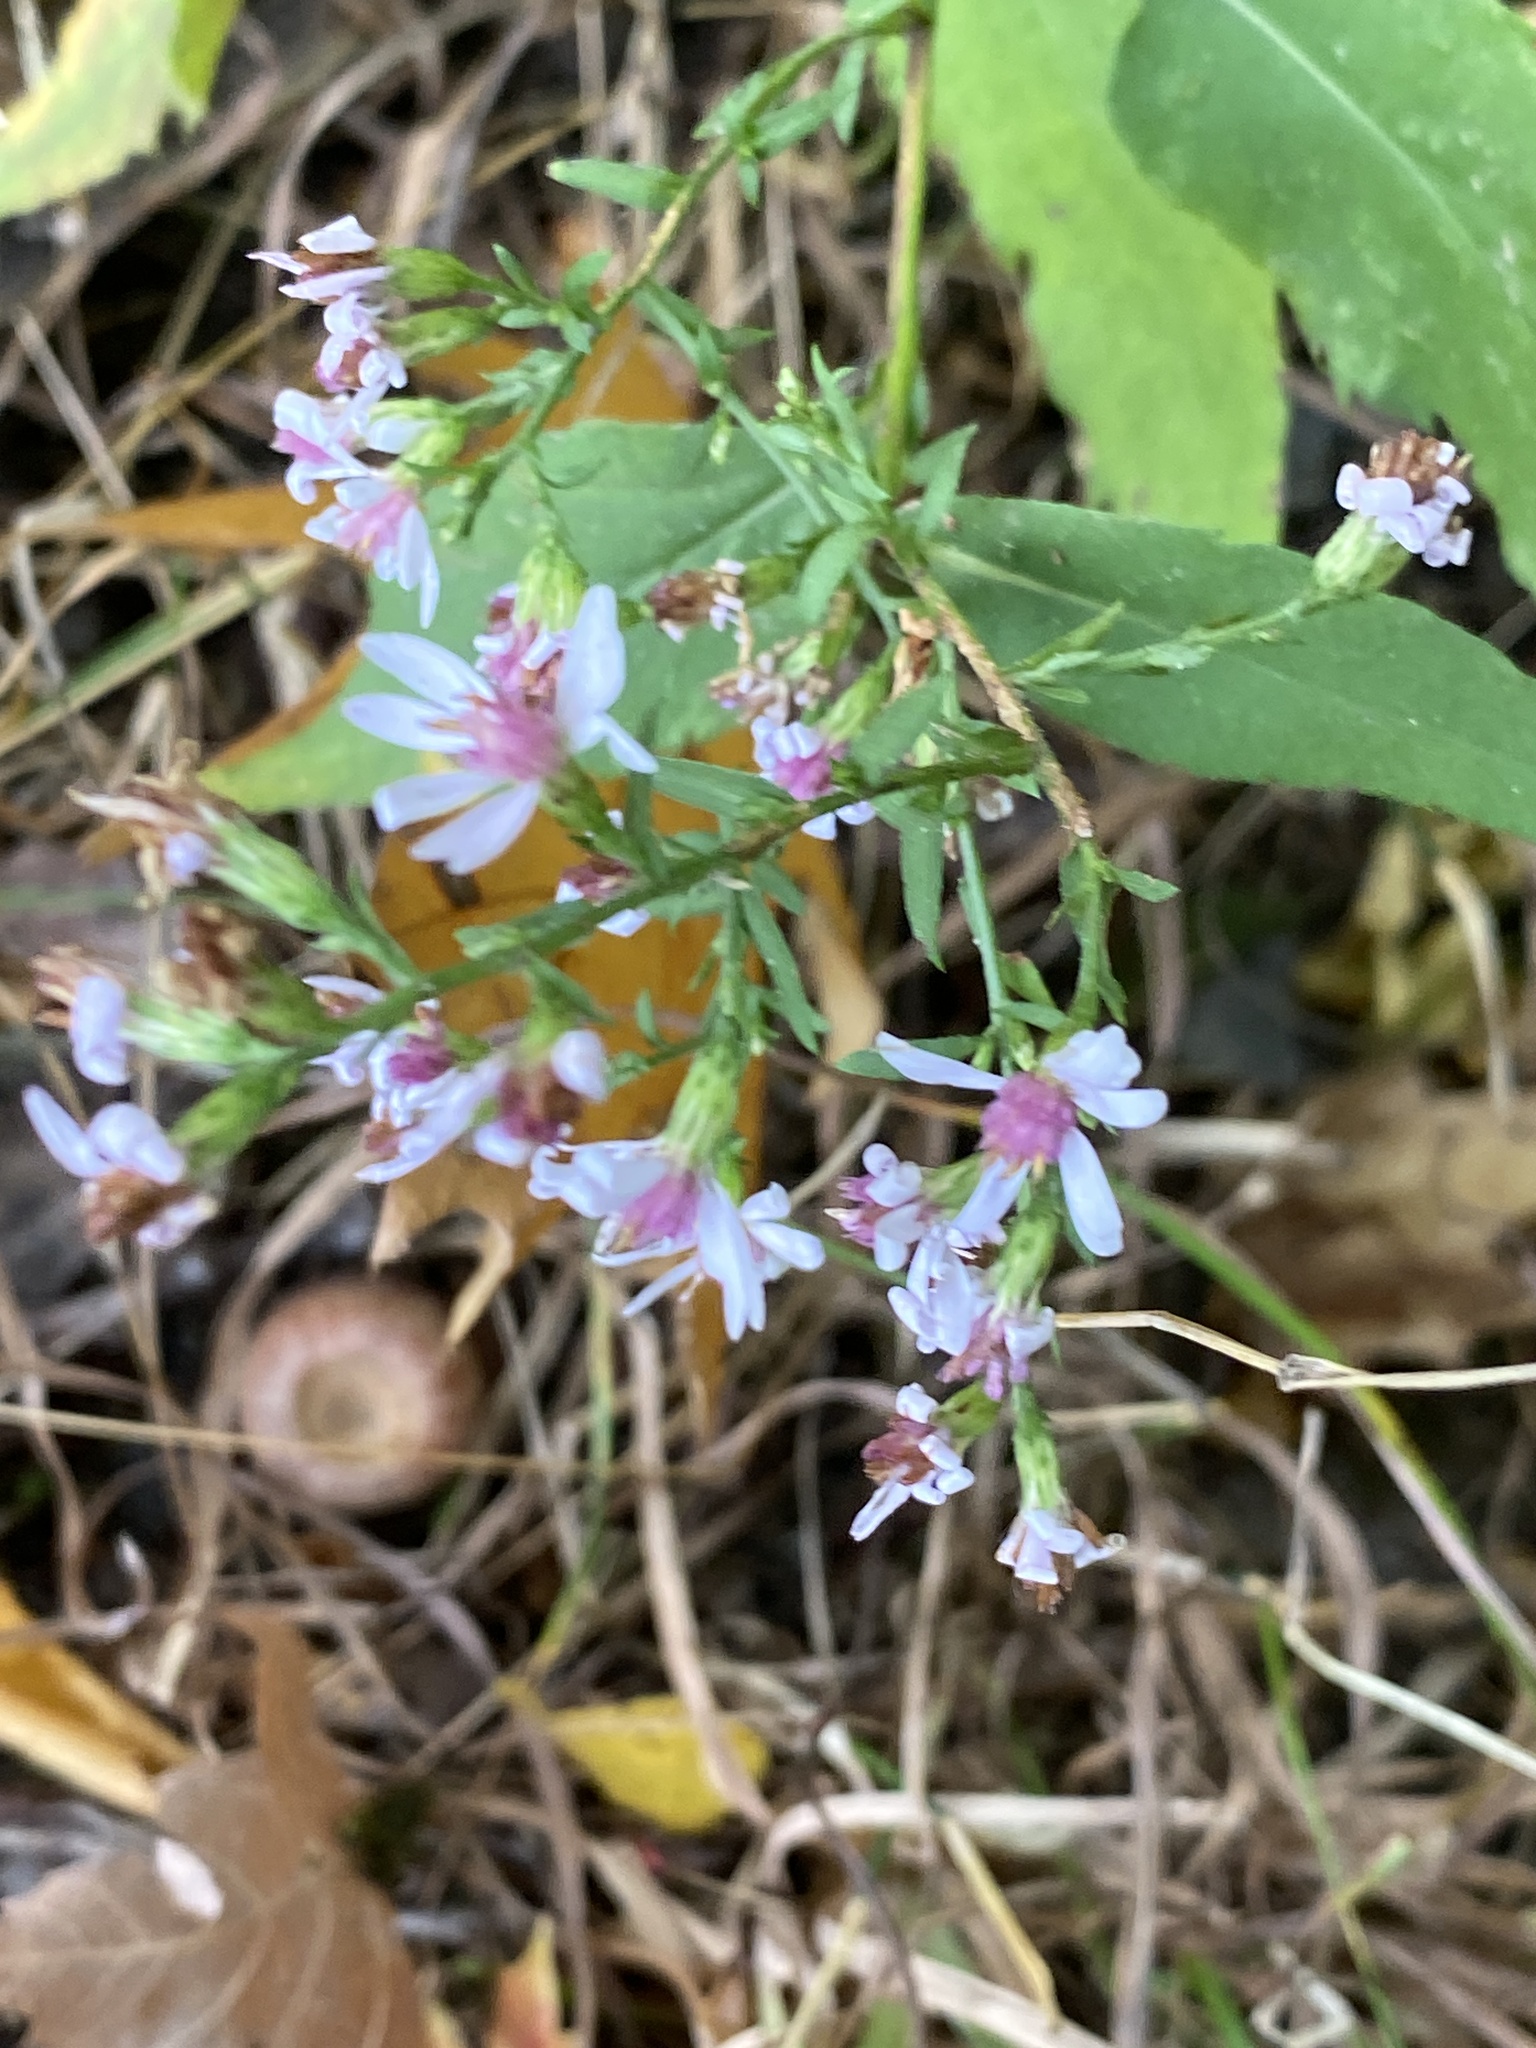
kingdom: Plantae
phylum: Tracheophyta
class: Magnoliopsida
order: Asterales
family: Asteraceae
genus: Symphyotrichum
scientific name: Symphyotrichum cordifolium
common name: Beeweed
